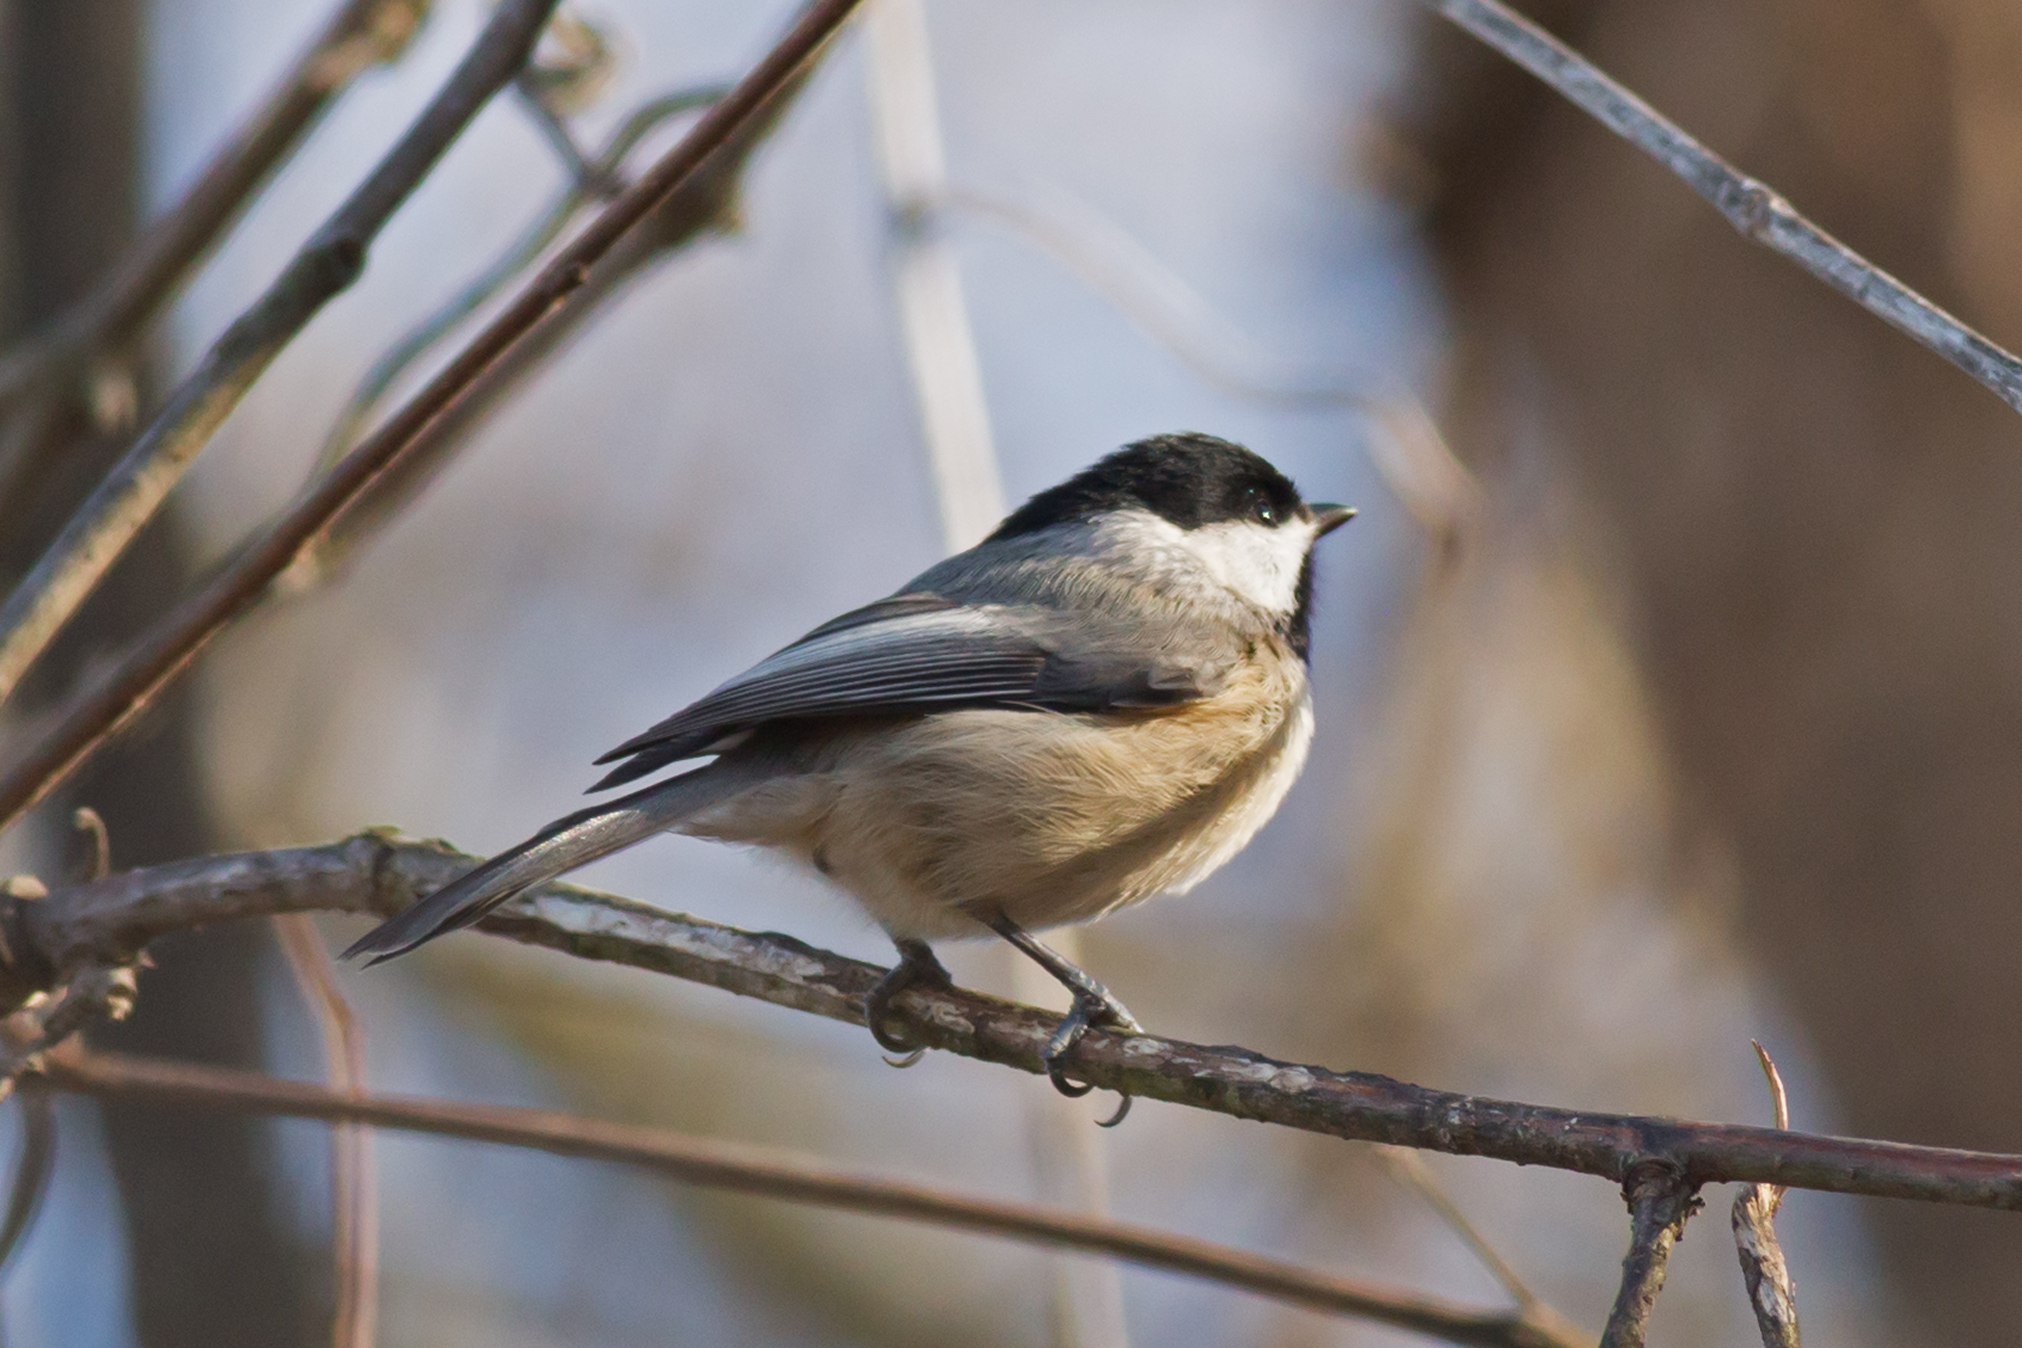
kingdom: Animalia
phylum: Chordata
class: Aves
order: Passeriformes
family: Paridae
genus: Poecile
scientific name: Poecile carolinensis
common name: Carolina chickadee
